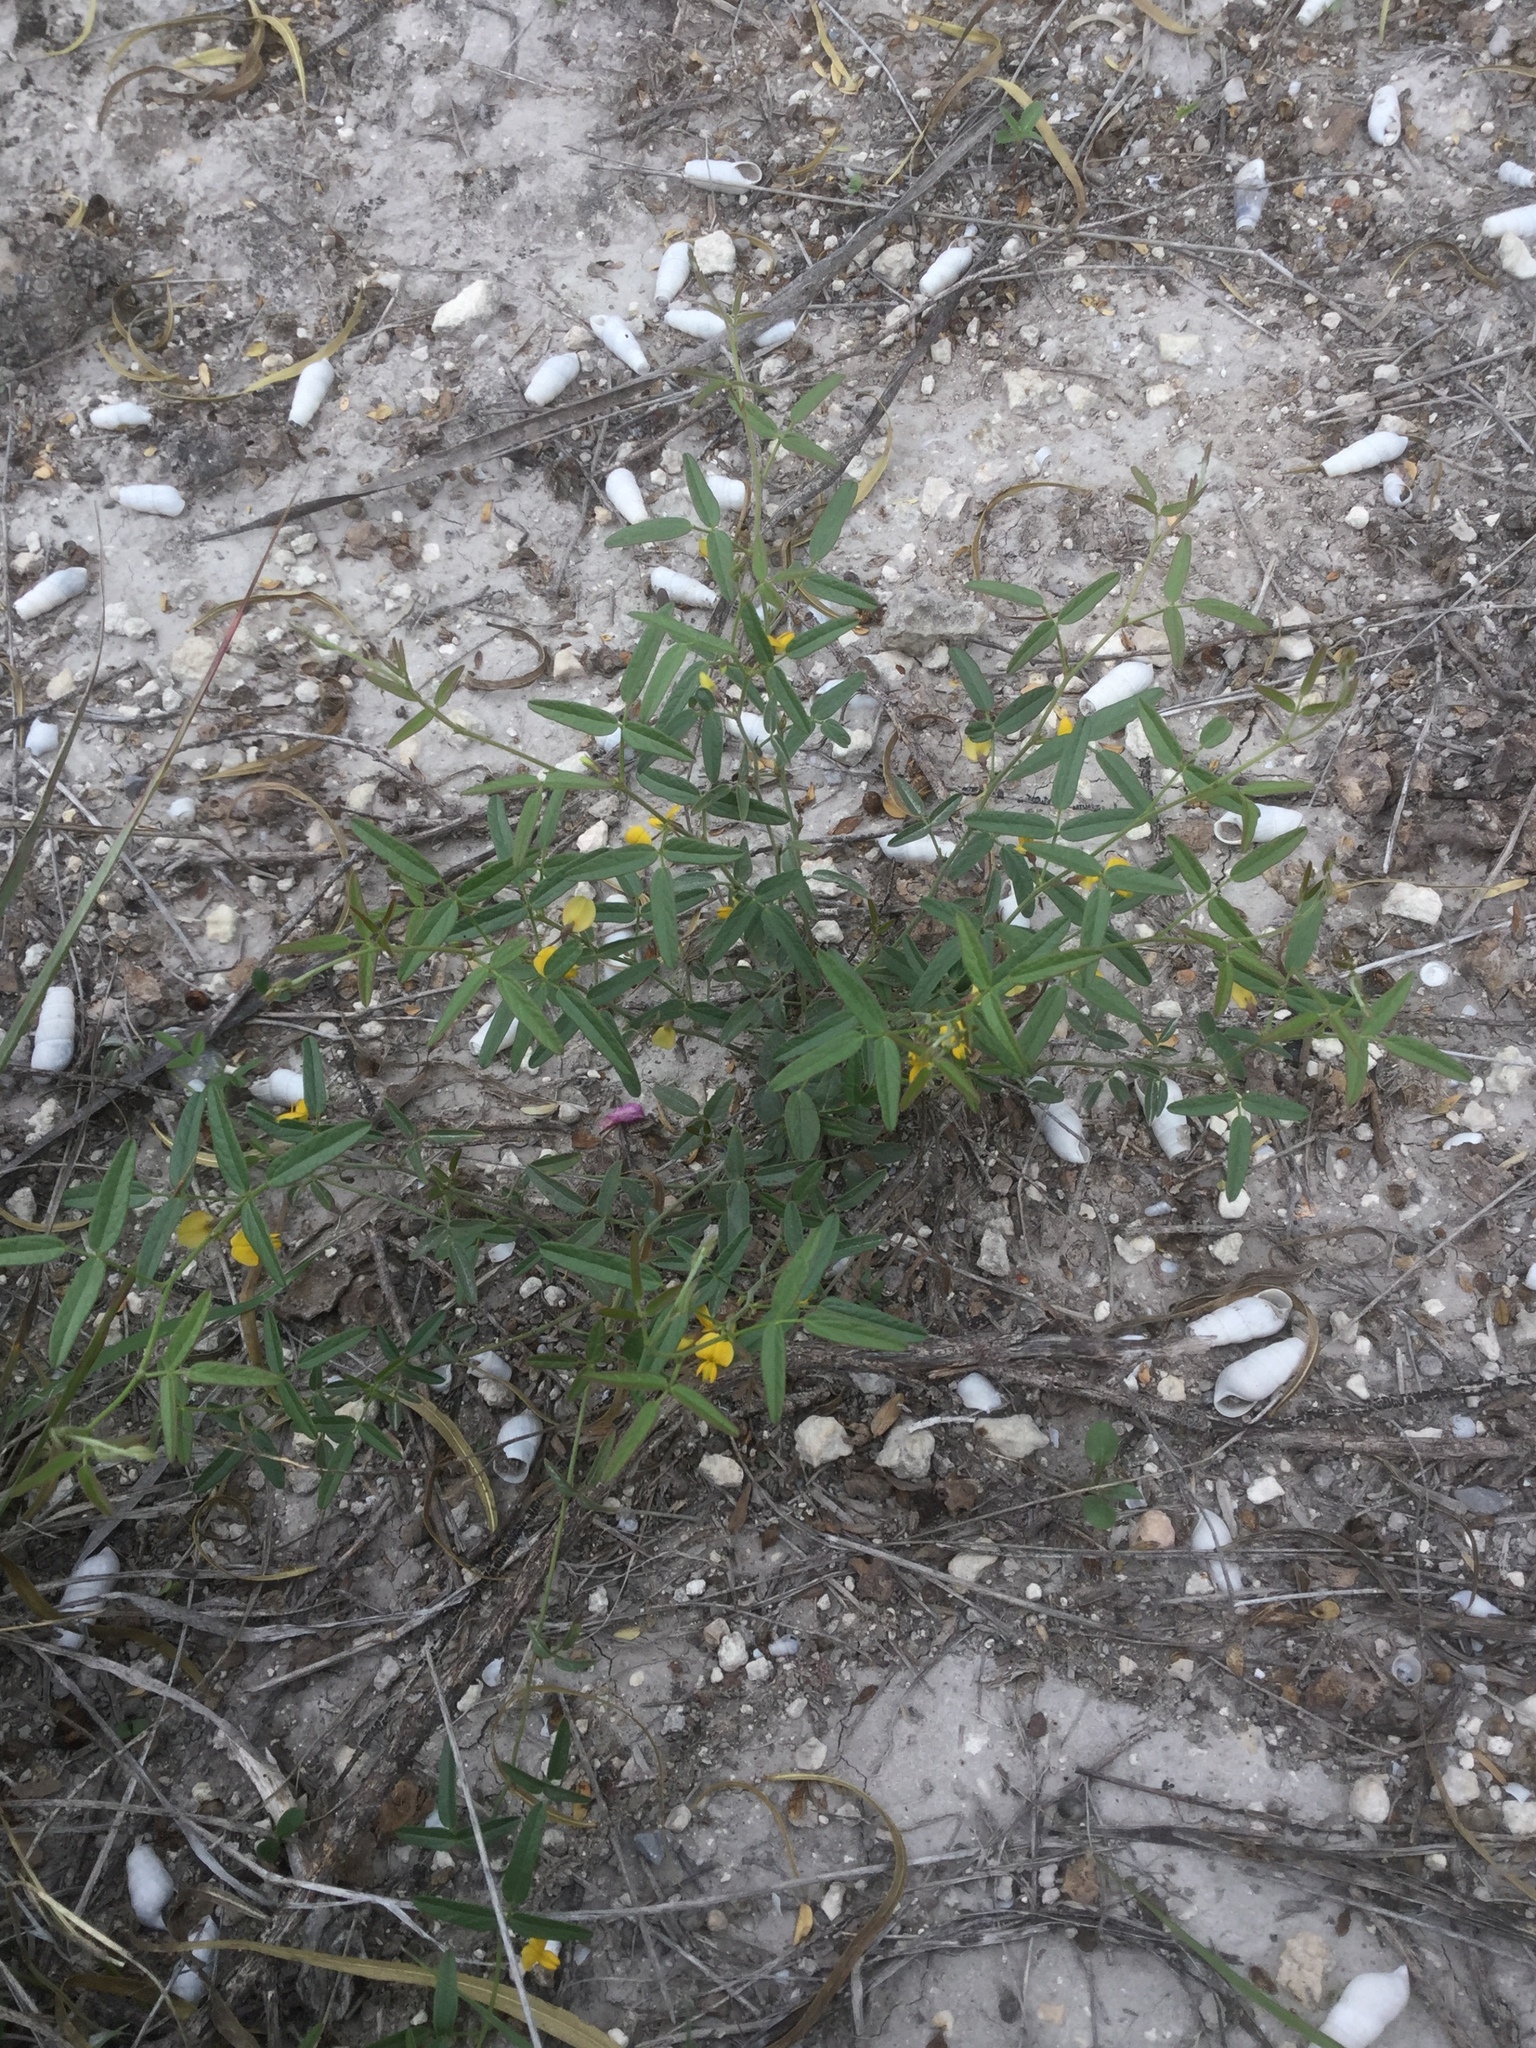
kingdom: Plantae
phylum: Tracheophyta
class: Magnoliopsida
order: Fabales
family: Fabaceae
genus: Rhynchosia
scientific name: Rhynchosia senna
